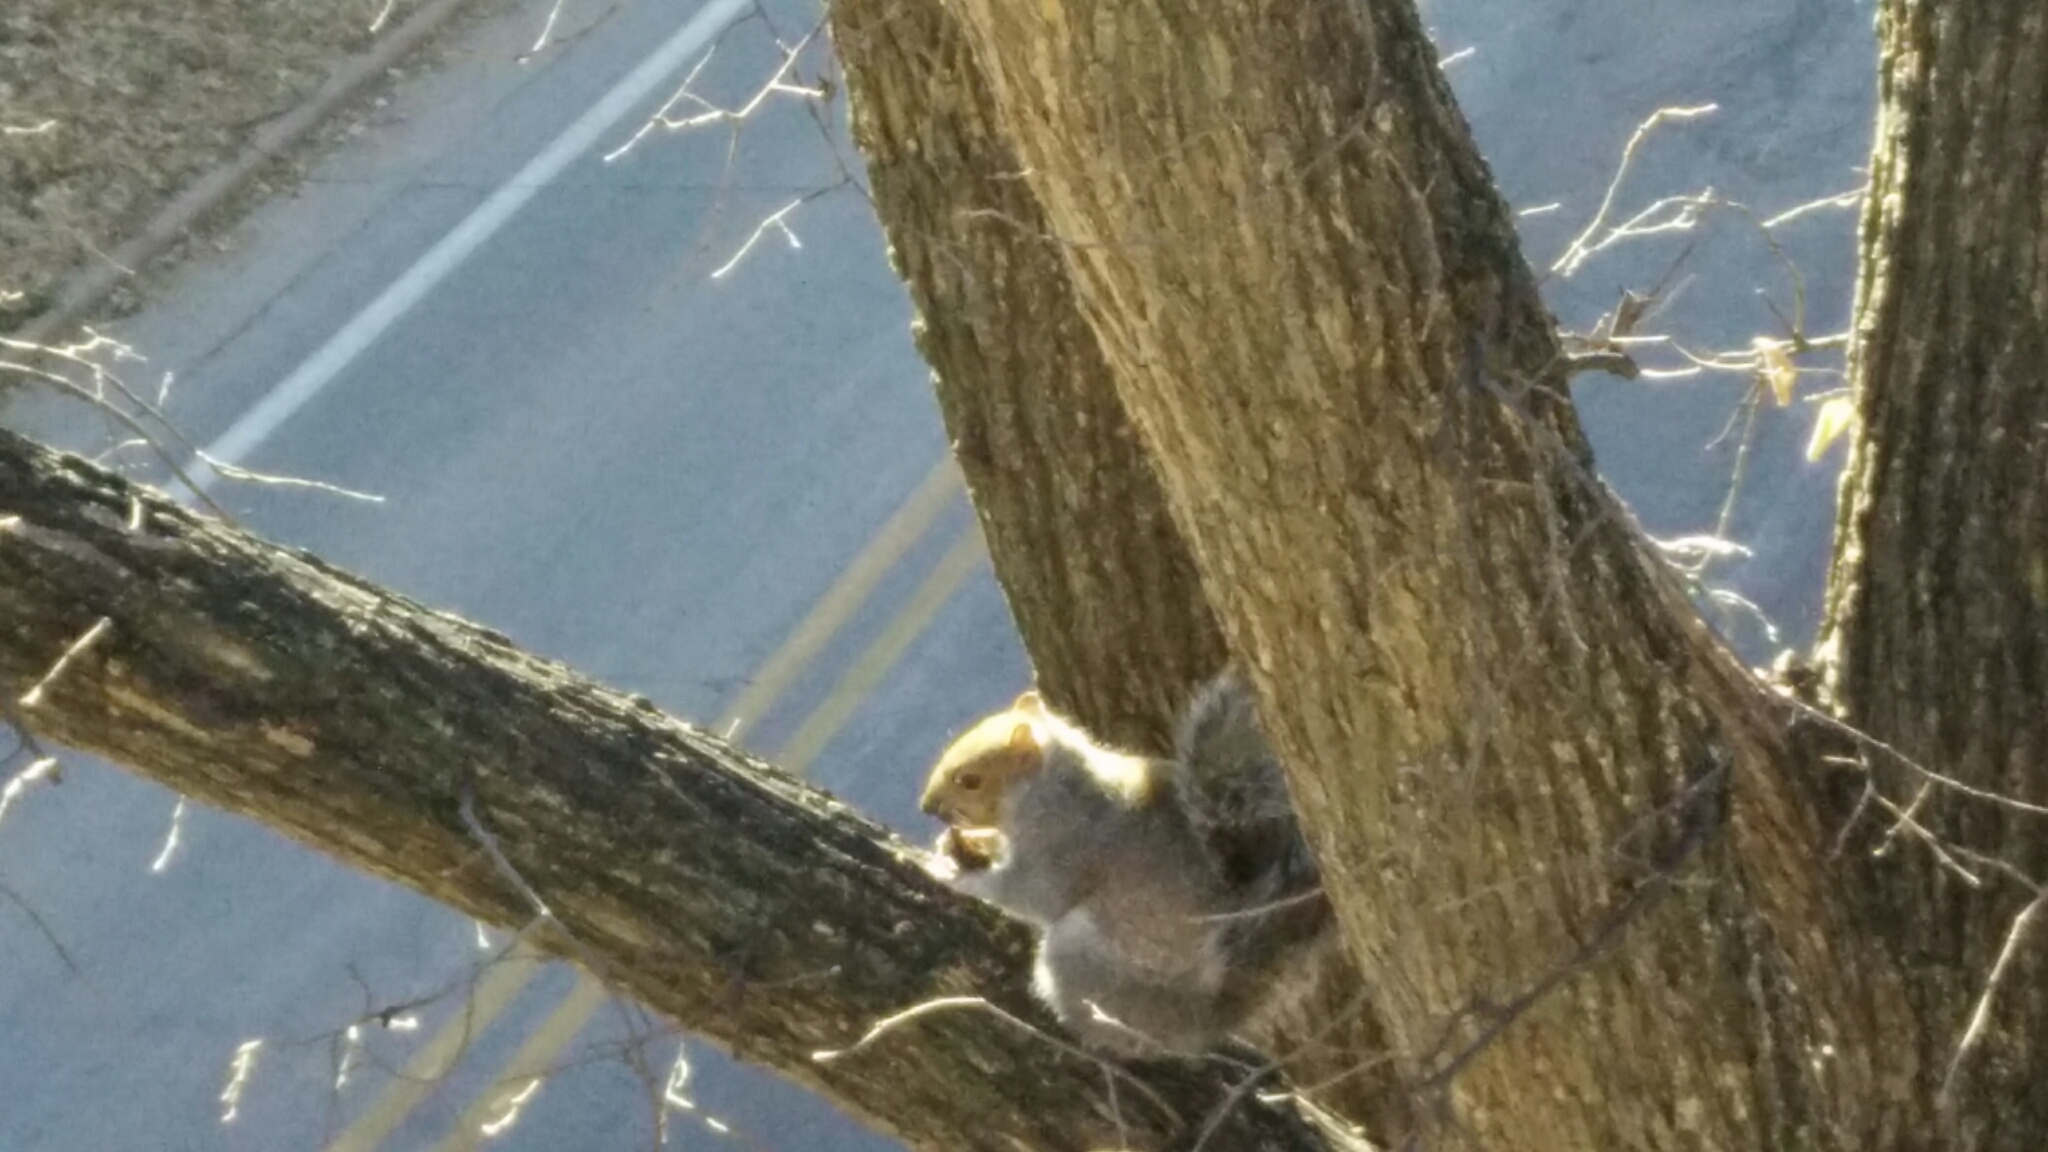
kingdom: Animalia
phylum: Chordata
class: Mammalia
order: Rodentia
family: Sciuridae
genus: Sciurus
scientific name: Sciurus carolinensis
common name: Eastern gray squirrel
